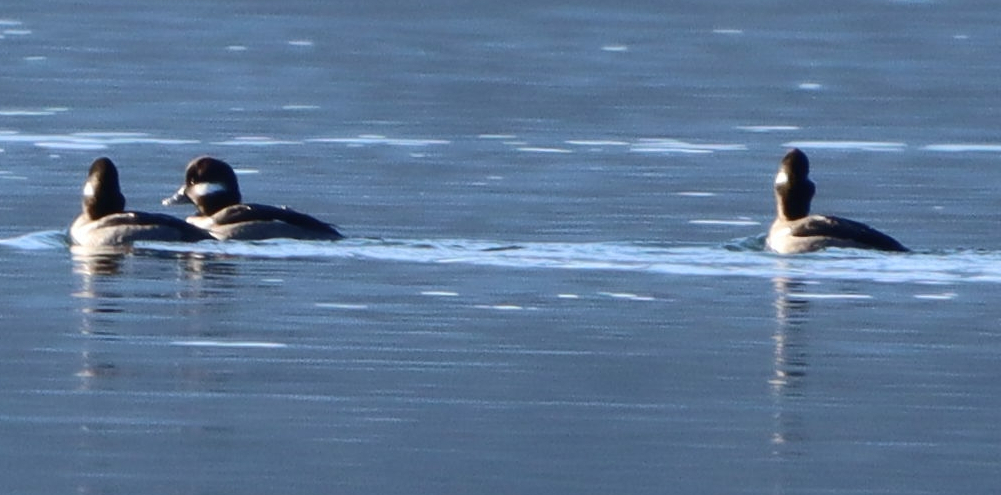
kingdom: Animalia
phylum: Chordata
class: Aves
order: Anseriformes
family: Anatidae
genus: Bucephala
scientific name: Bucephala albeola
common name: Bufflehead
